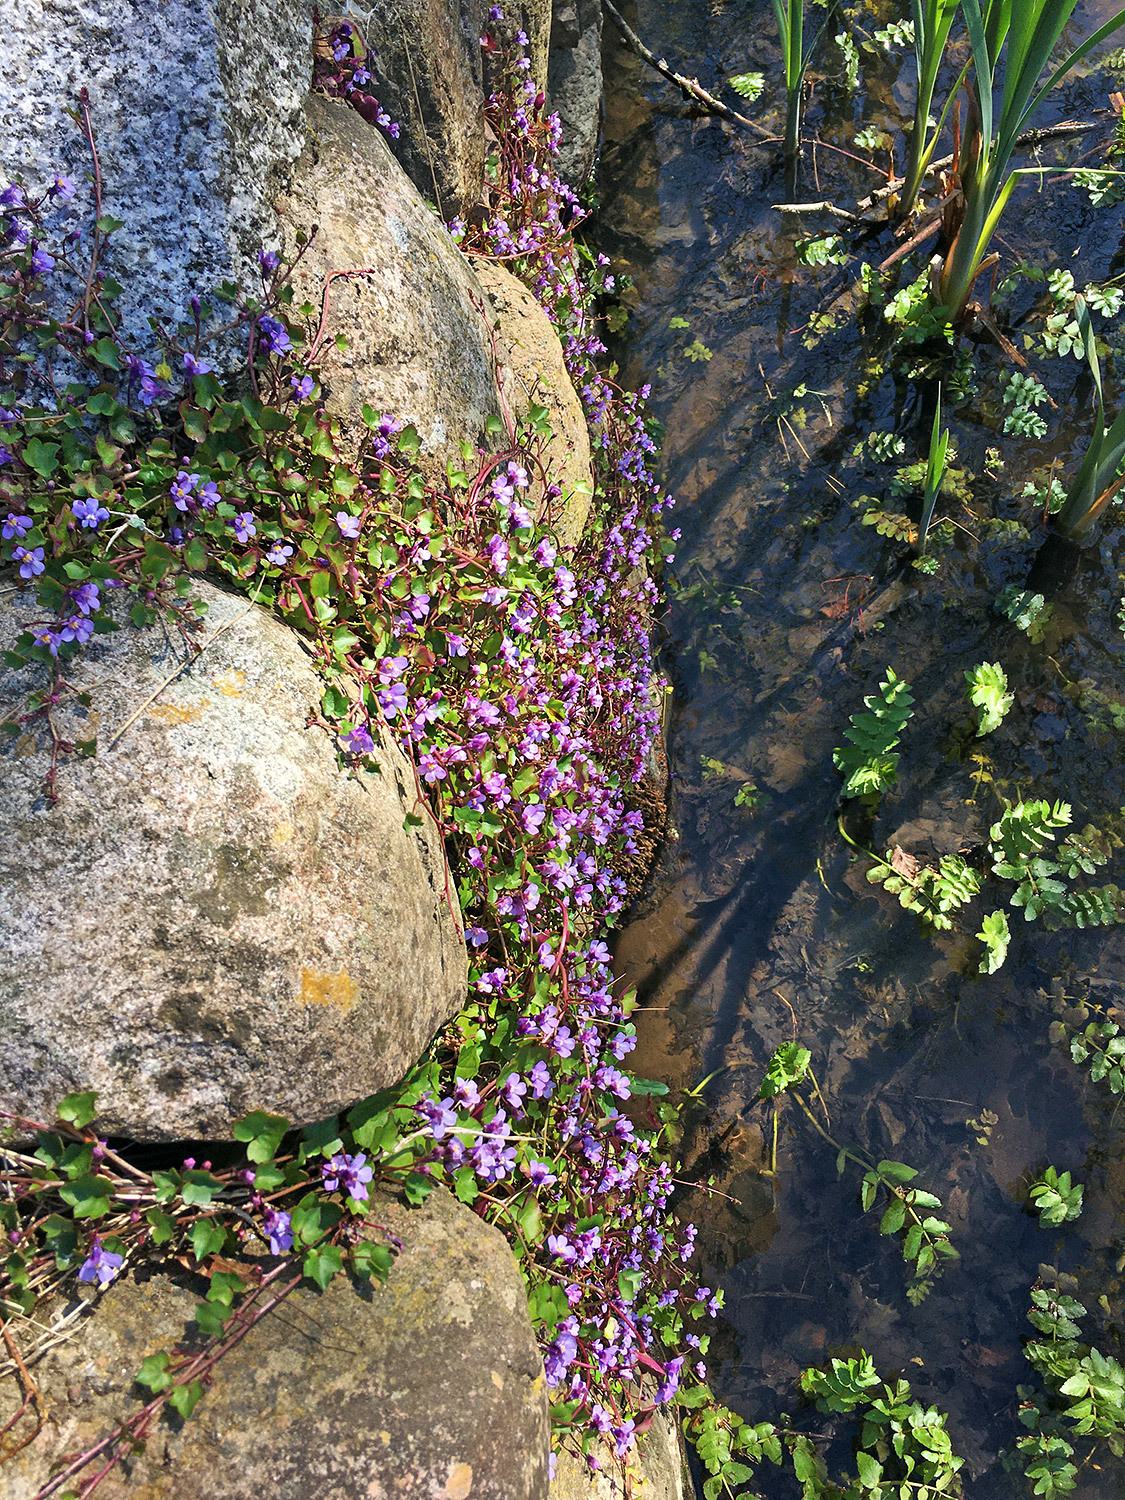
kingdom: Plantae
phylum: Tracheophyta
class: Magnoliopsida
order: Lamiales
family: Plantaginaceae
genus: Cymbalaria
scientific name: Cymbalaria muralis
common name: Ivy-leaved toadflax
